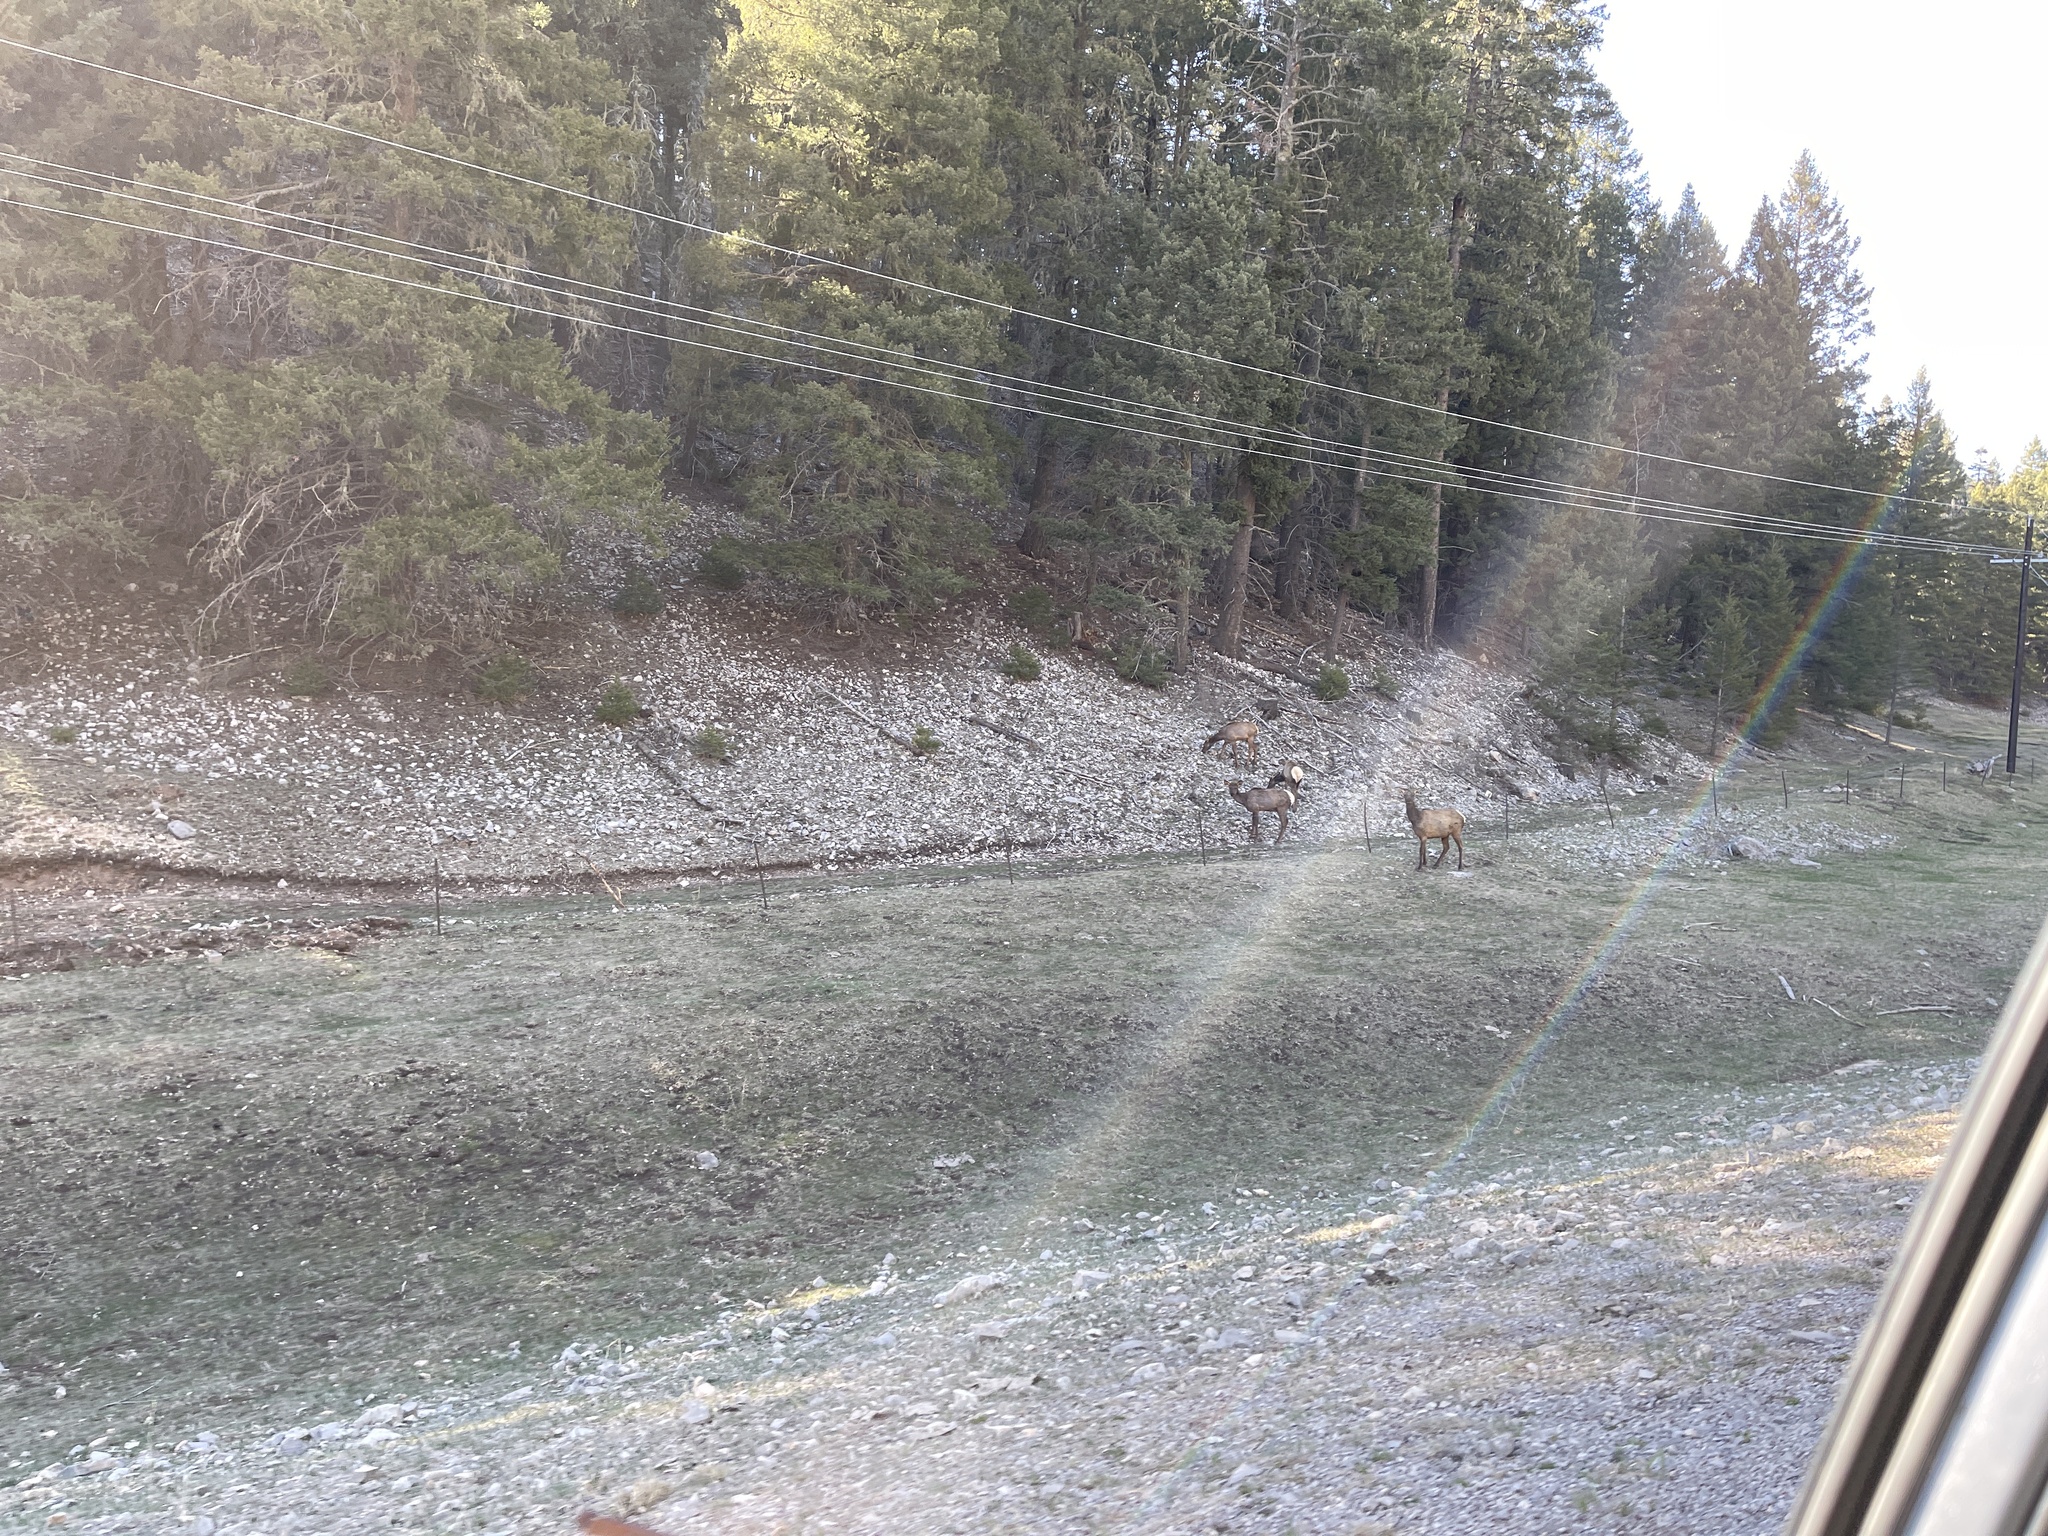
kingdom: Animalia
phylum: Chordata
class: Mammalia
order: Artiodactyla
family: Cervidae
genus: Cervus
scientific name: Cervus elaphus
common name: Red deer
